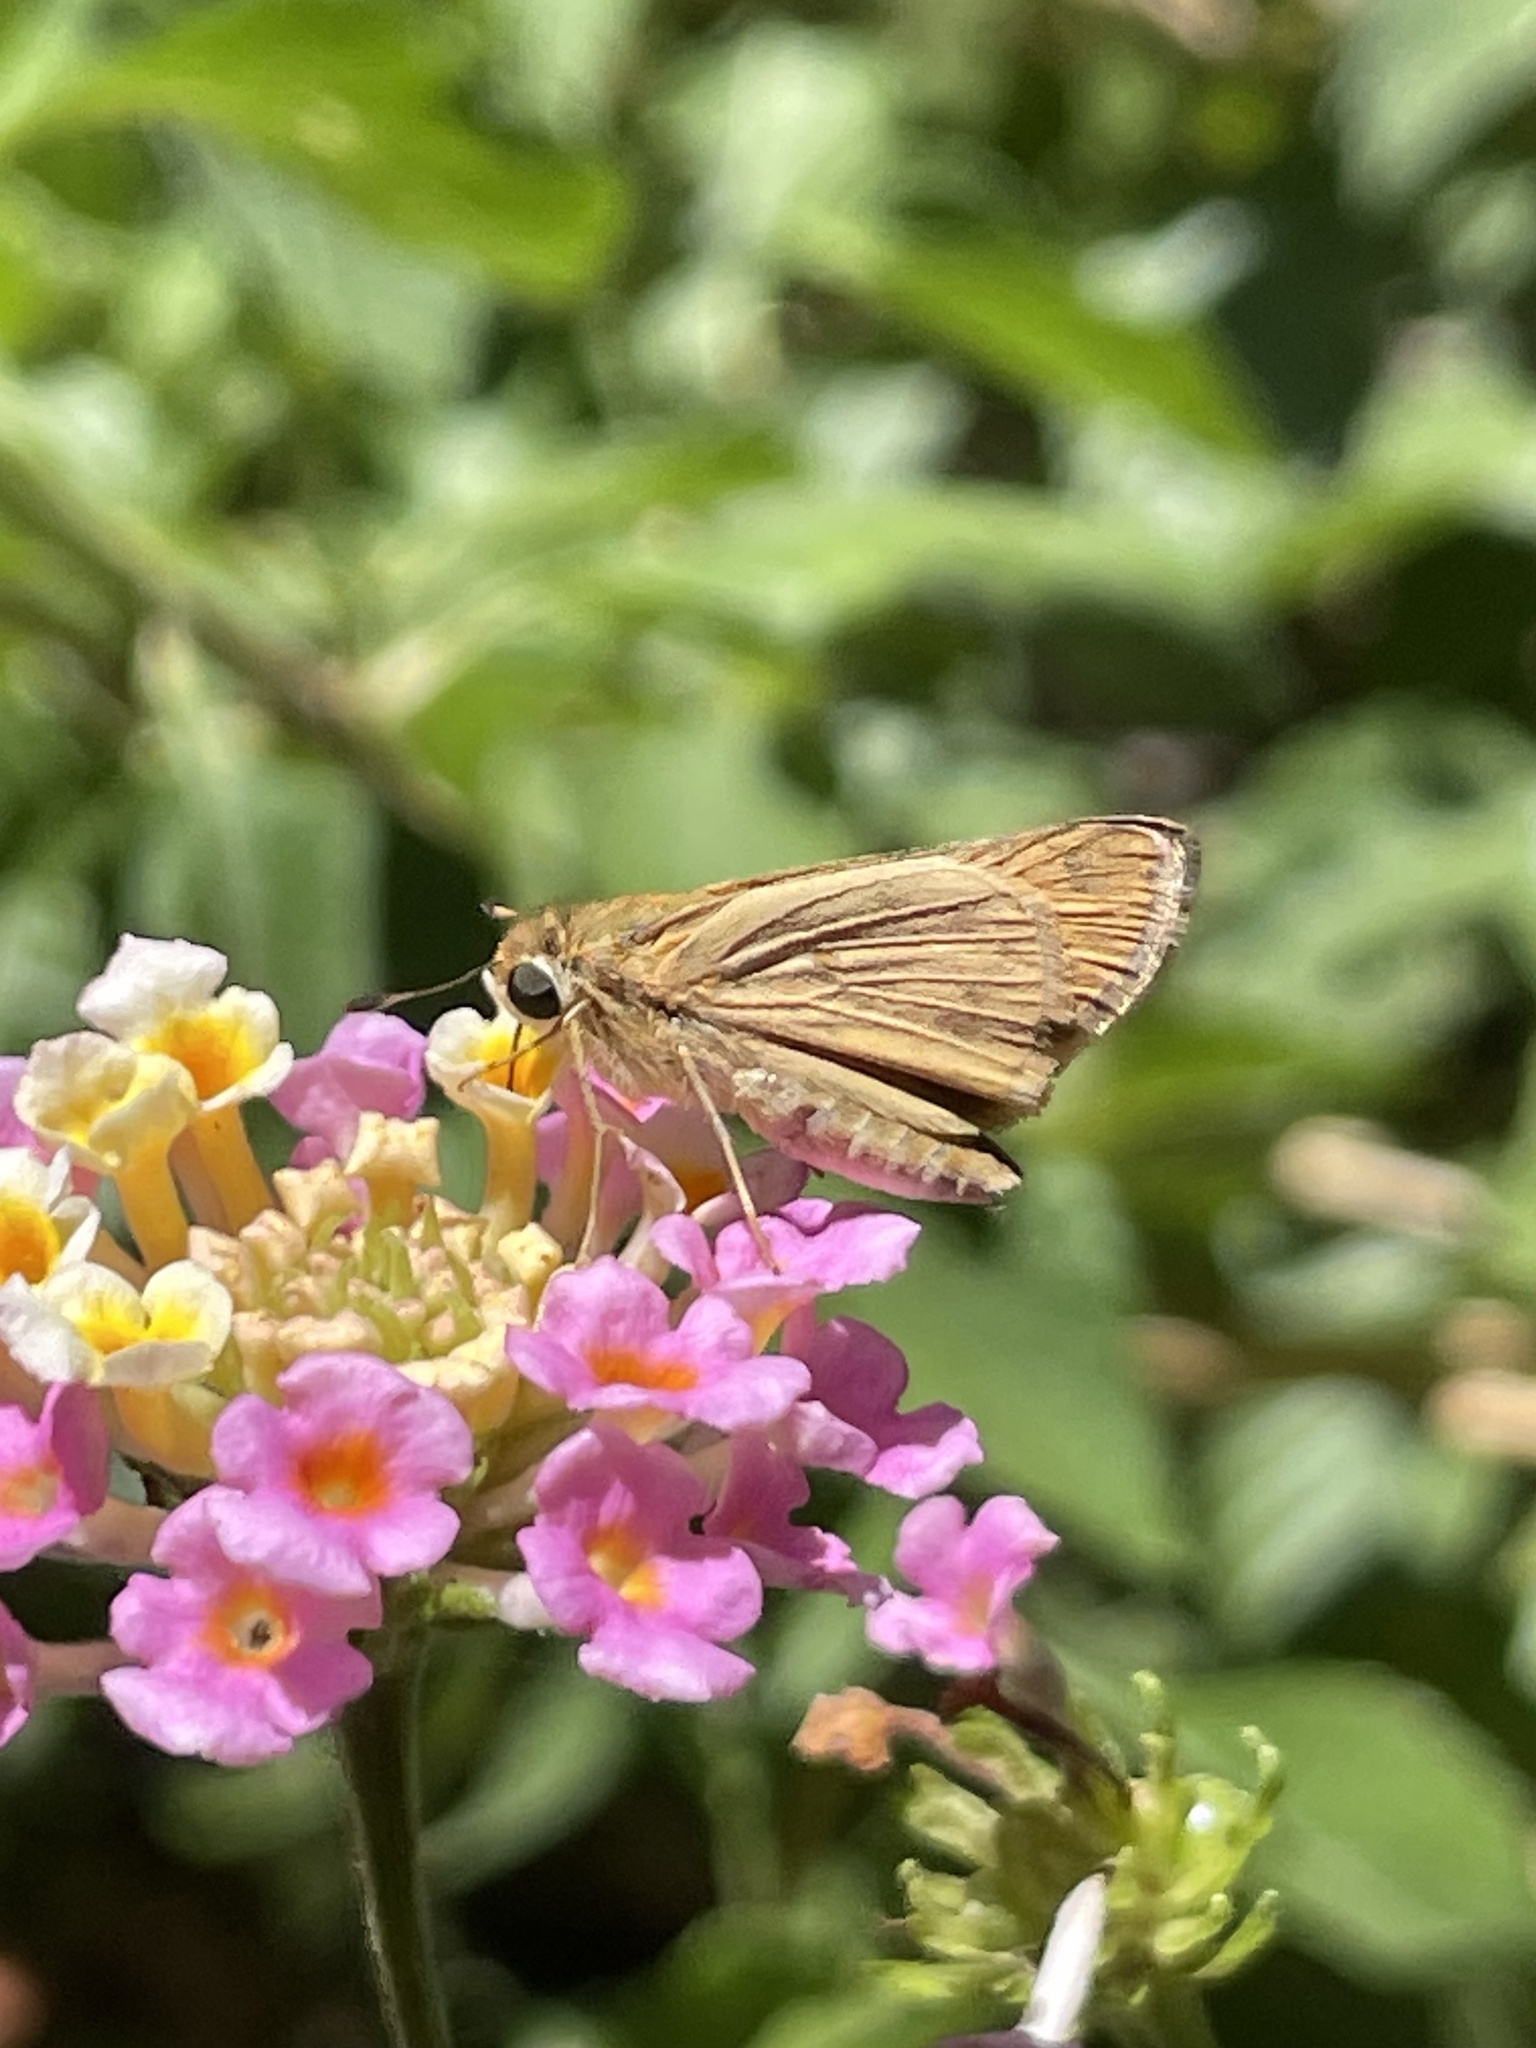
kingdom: Animalia
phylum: Arthropoda
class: Insecta
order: Lepidoptera
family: Hesperiidae
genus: Hylephila
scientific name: Hylephila phyleus
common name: Fiery skipper
